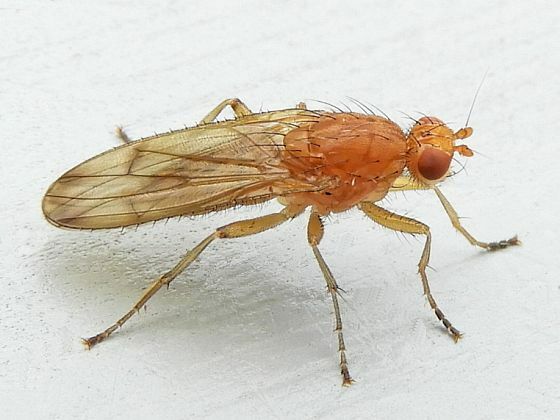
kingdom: Animalia
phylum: Arthropoda
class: Insecta
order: Diptera
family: Heleomyzidae
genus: Amoebaleria
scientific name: Amoebaleria helvola
